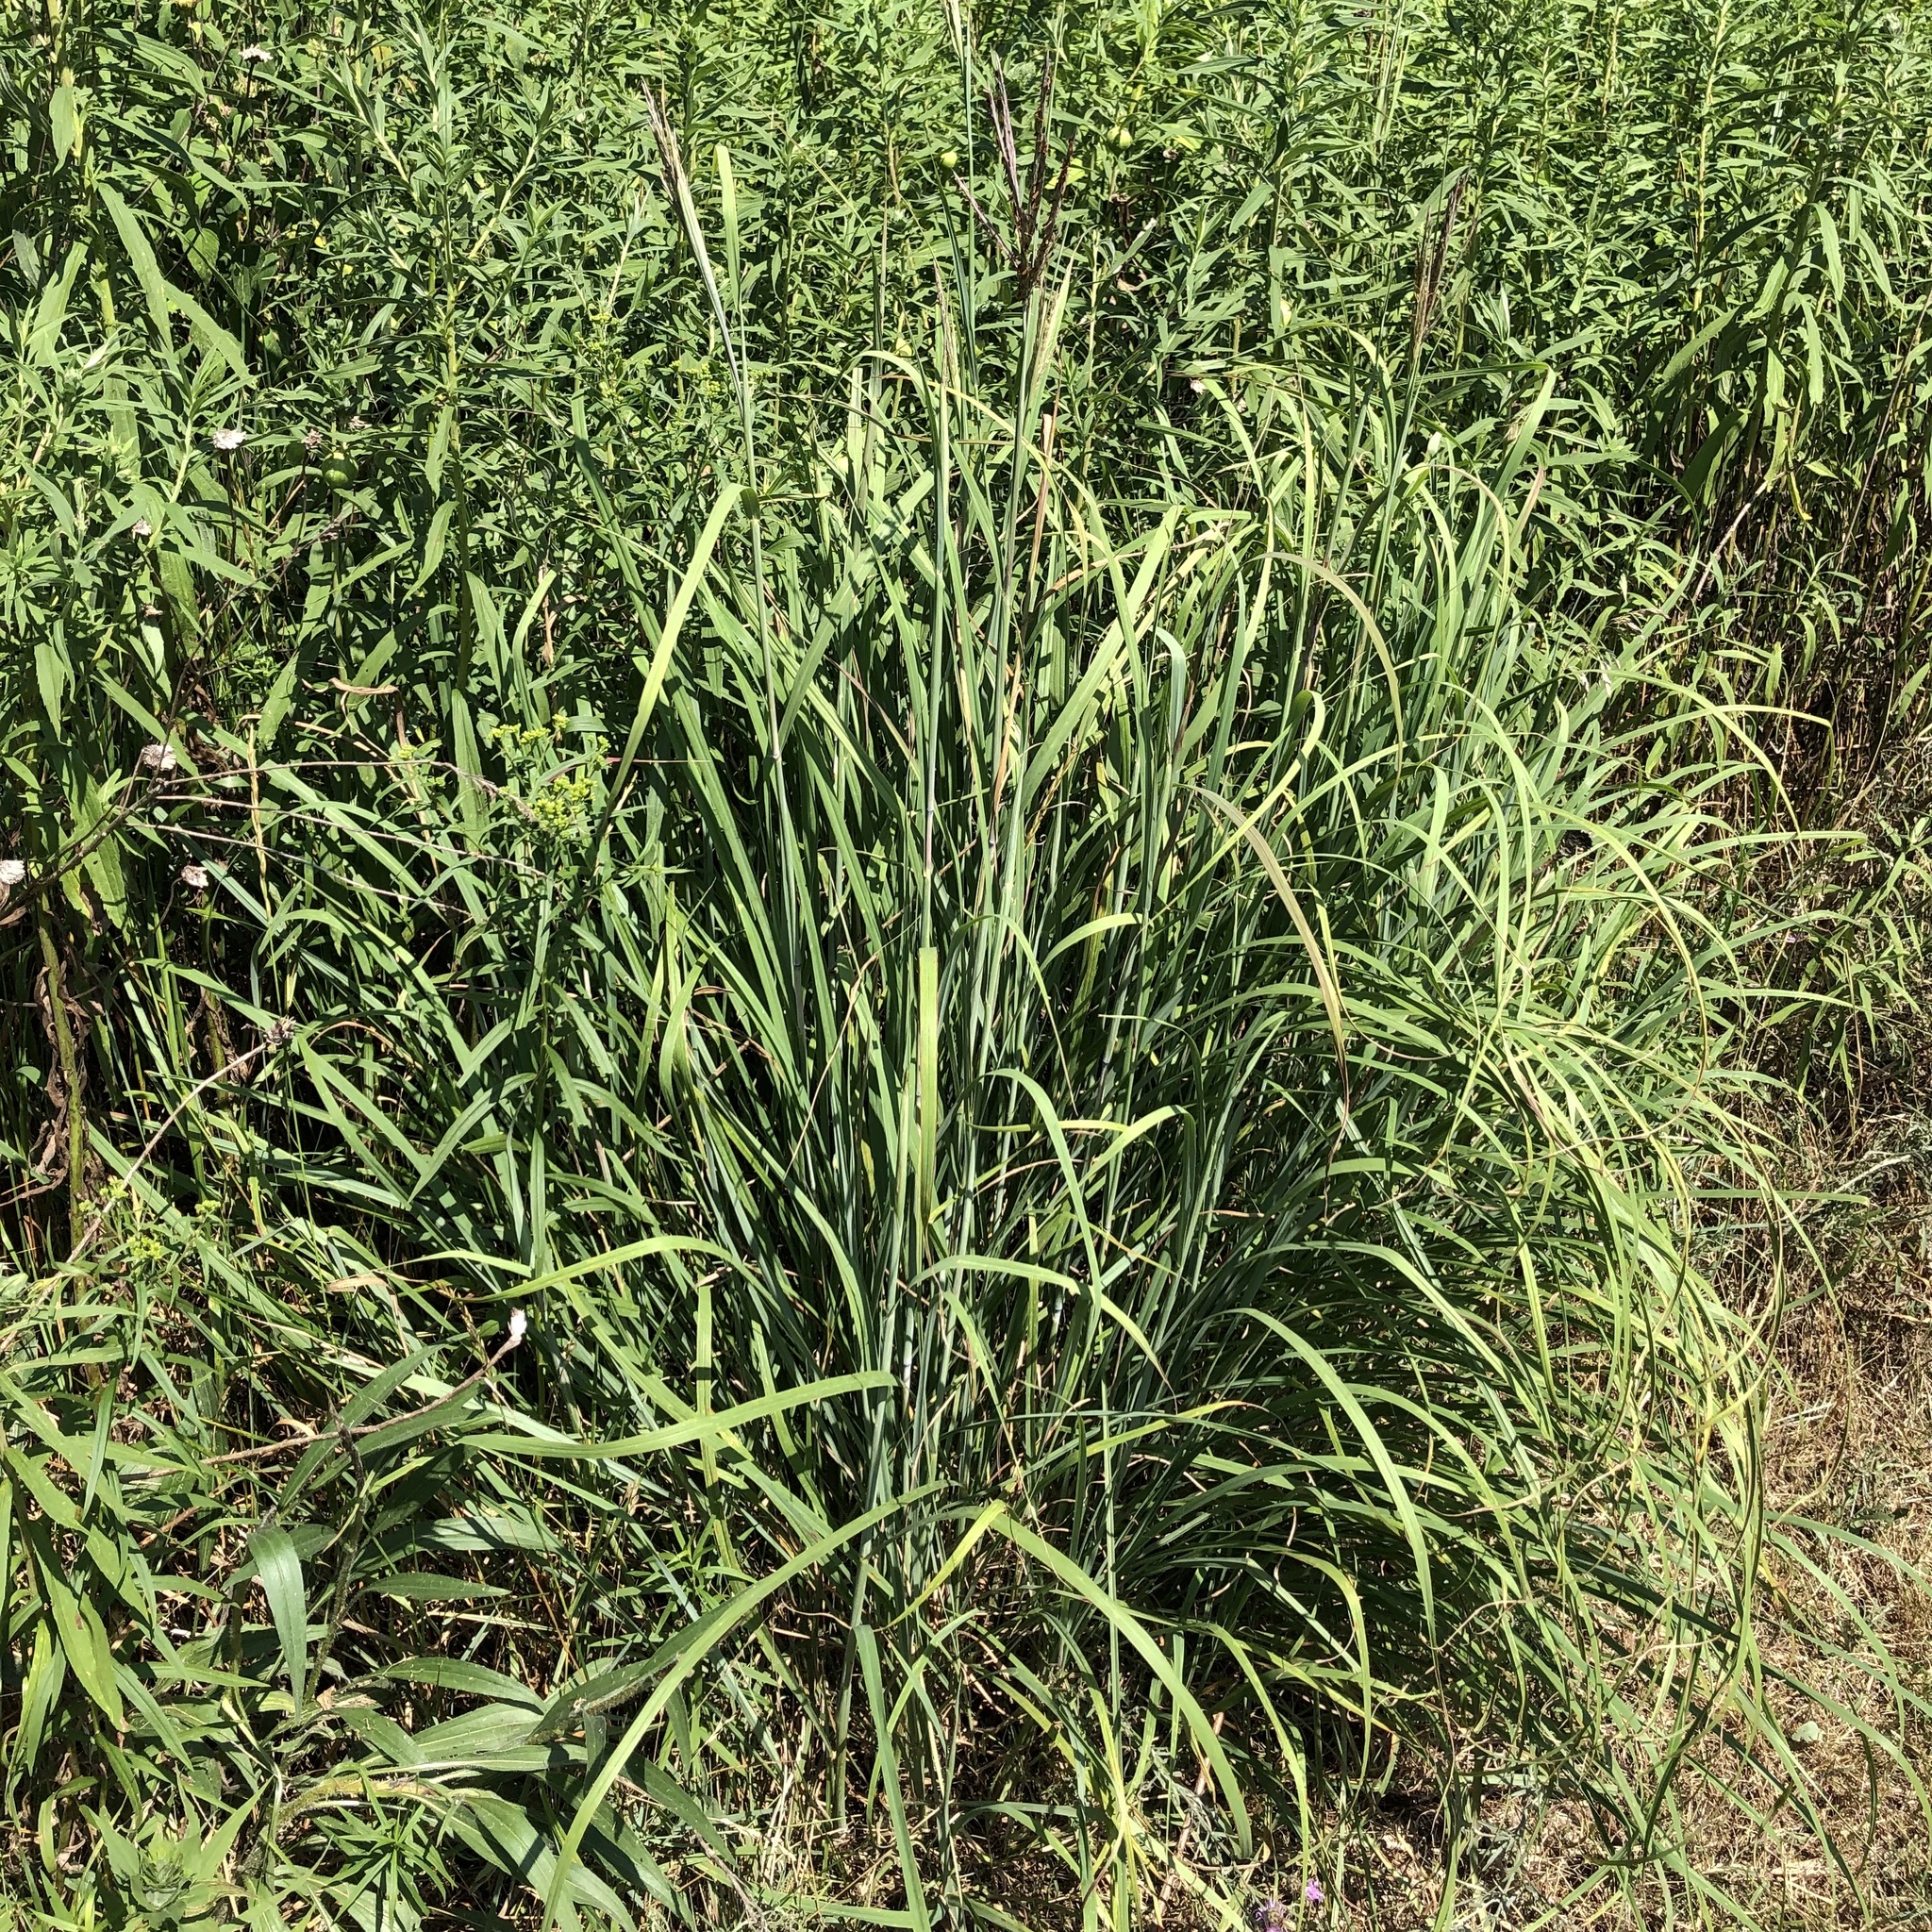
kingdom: Plantae
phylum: Tracheophyta
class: Liliopsida
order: Poales
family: Poaceae
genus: Andropogon
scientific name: Andropogon gerardi
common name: Big bluestem
